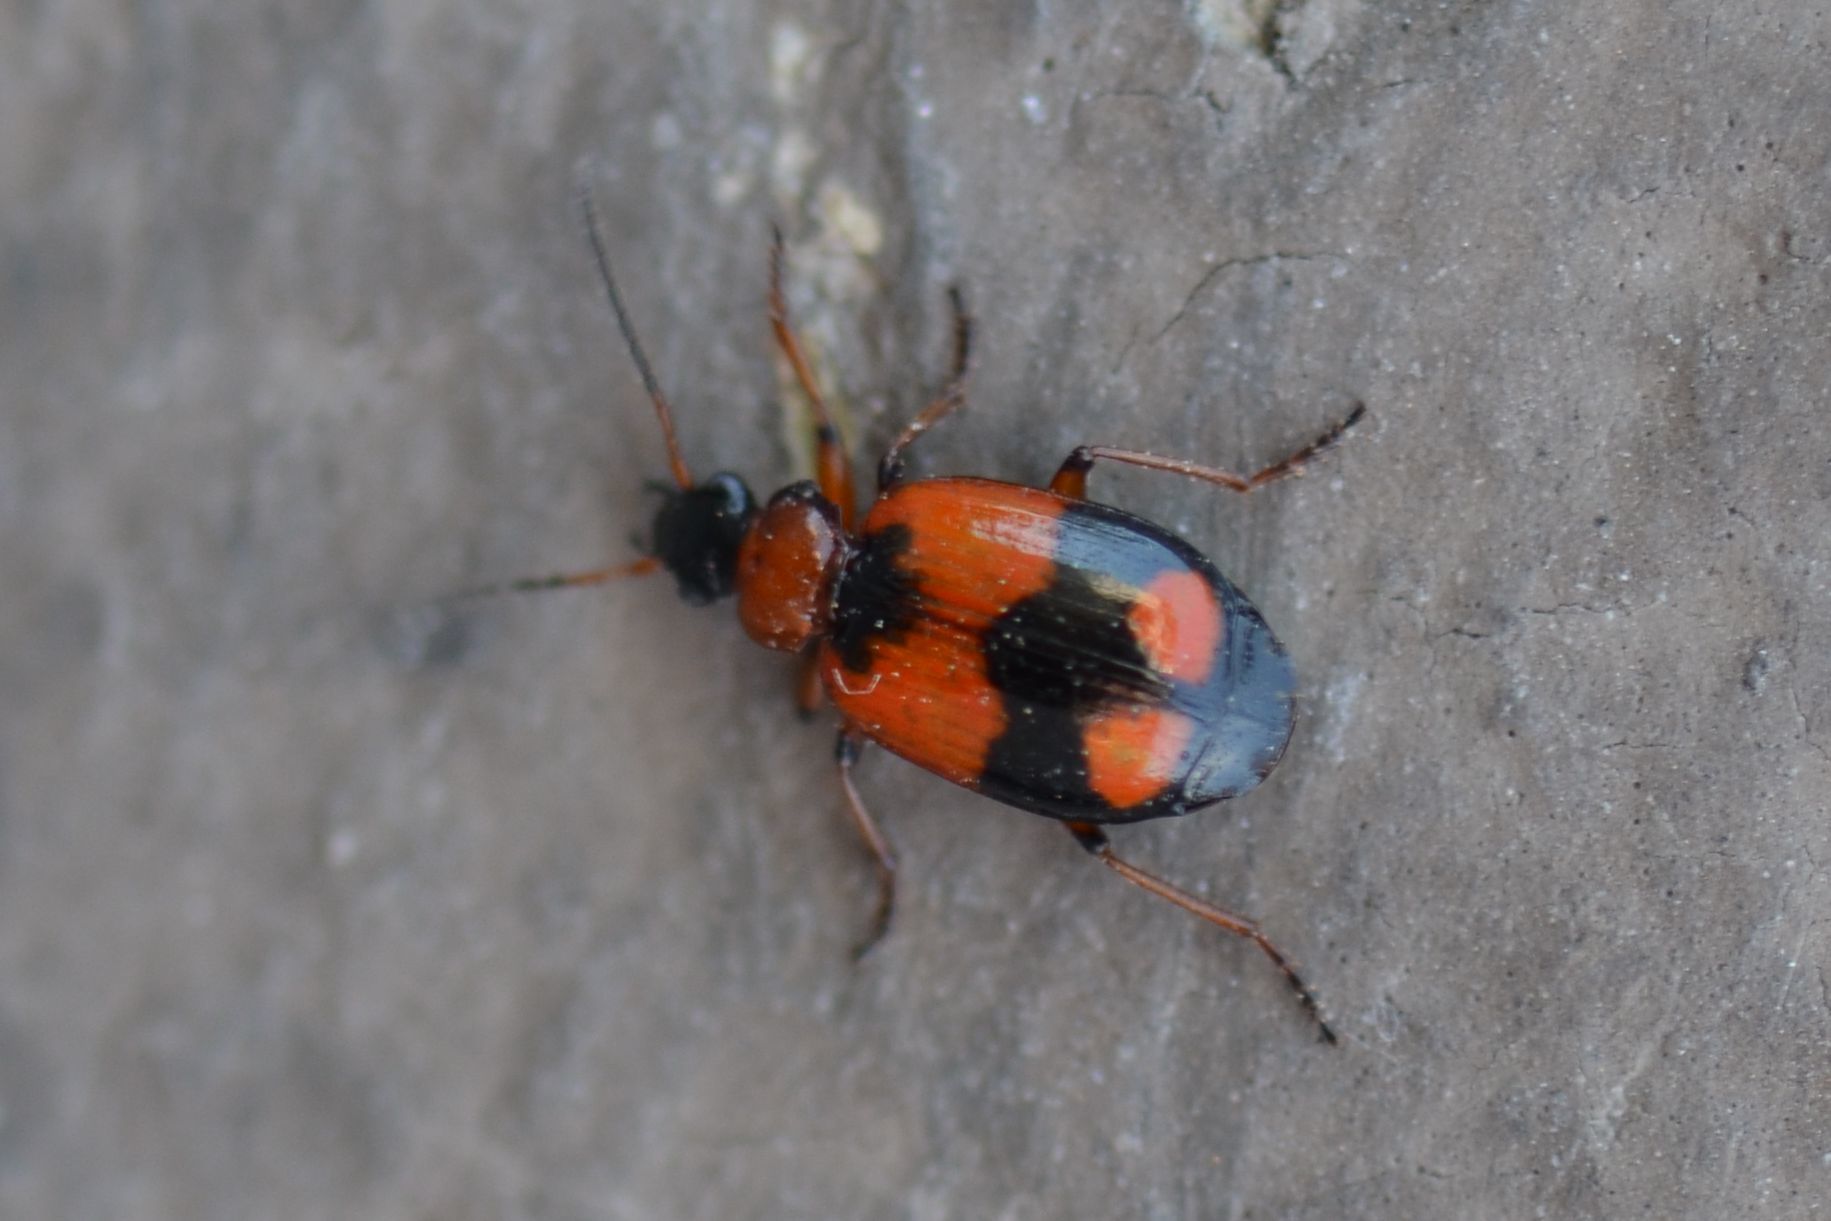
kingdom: Animalia
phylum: Arthropoda
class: Insecta
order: Coleoptera
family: Carabidae
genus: Lebia
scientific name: Lebia cruxminor
